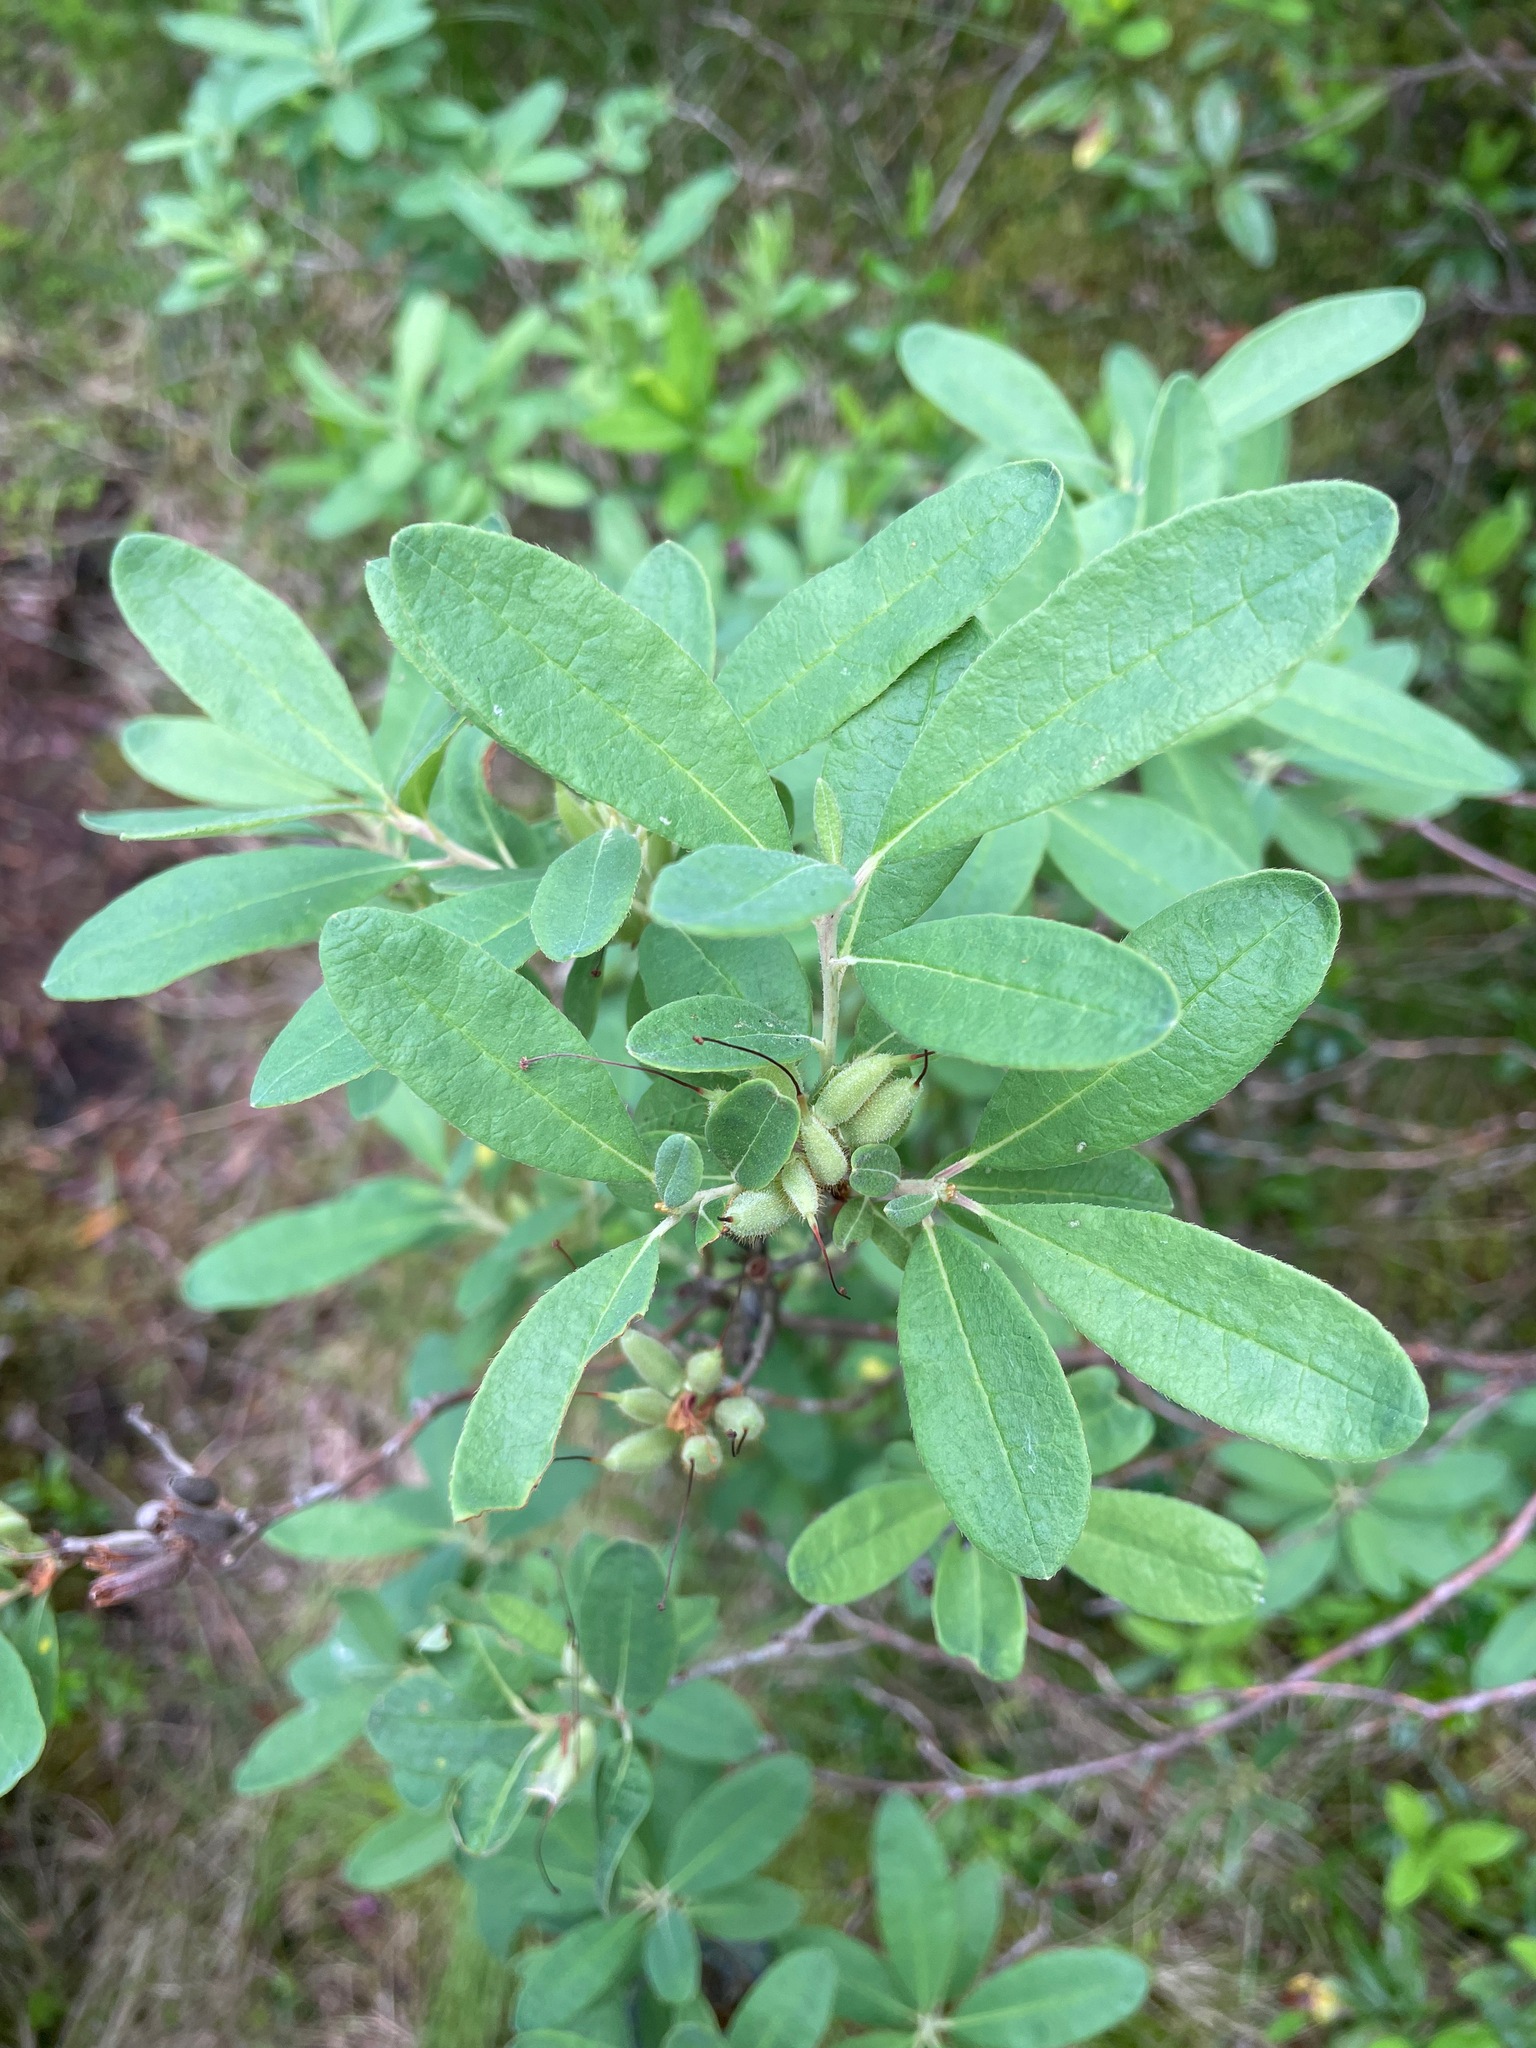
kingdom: Plantae
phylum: Tracheophyta
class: Magnoliopsida
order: Ericales
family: Ericaceae
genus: Rhododendron
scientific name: Rhododendron canadense
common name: Rhodora
